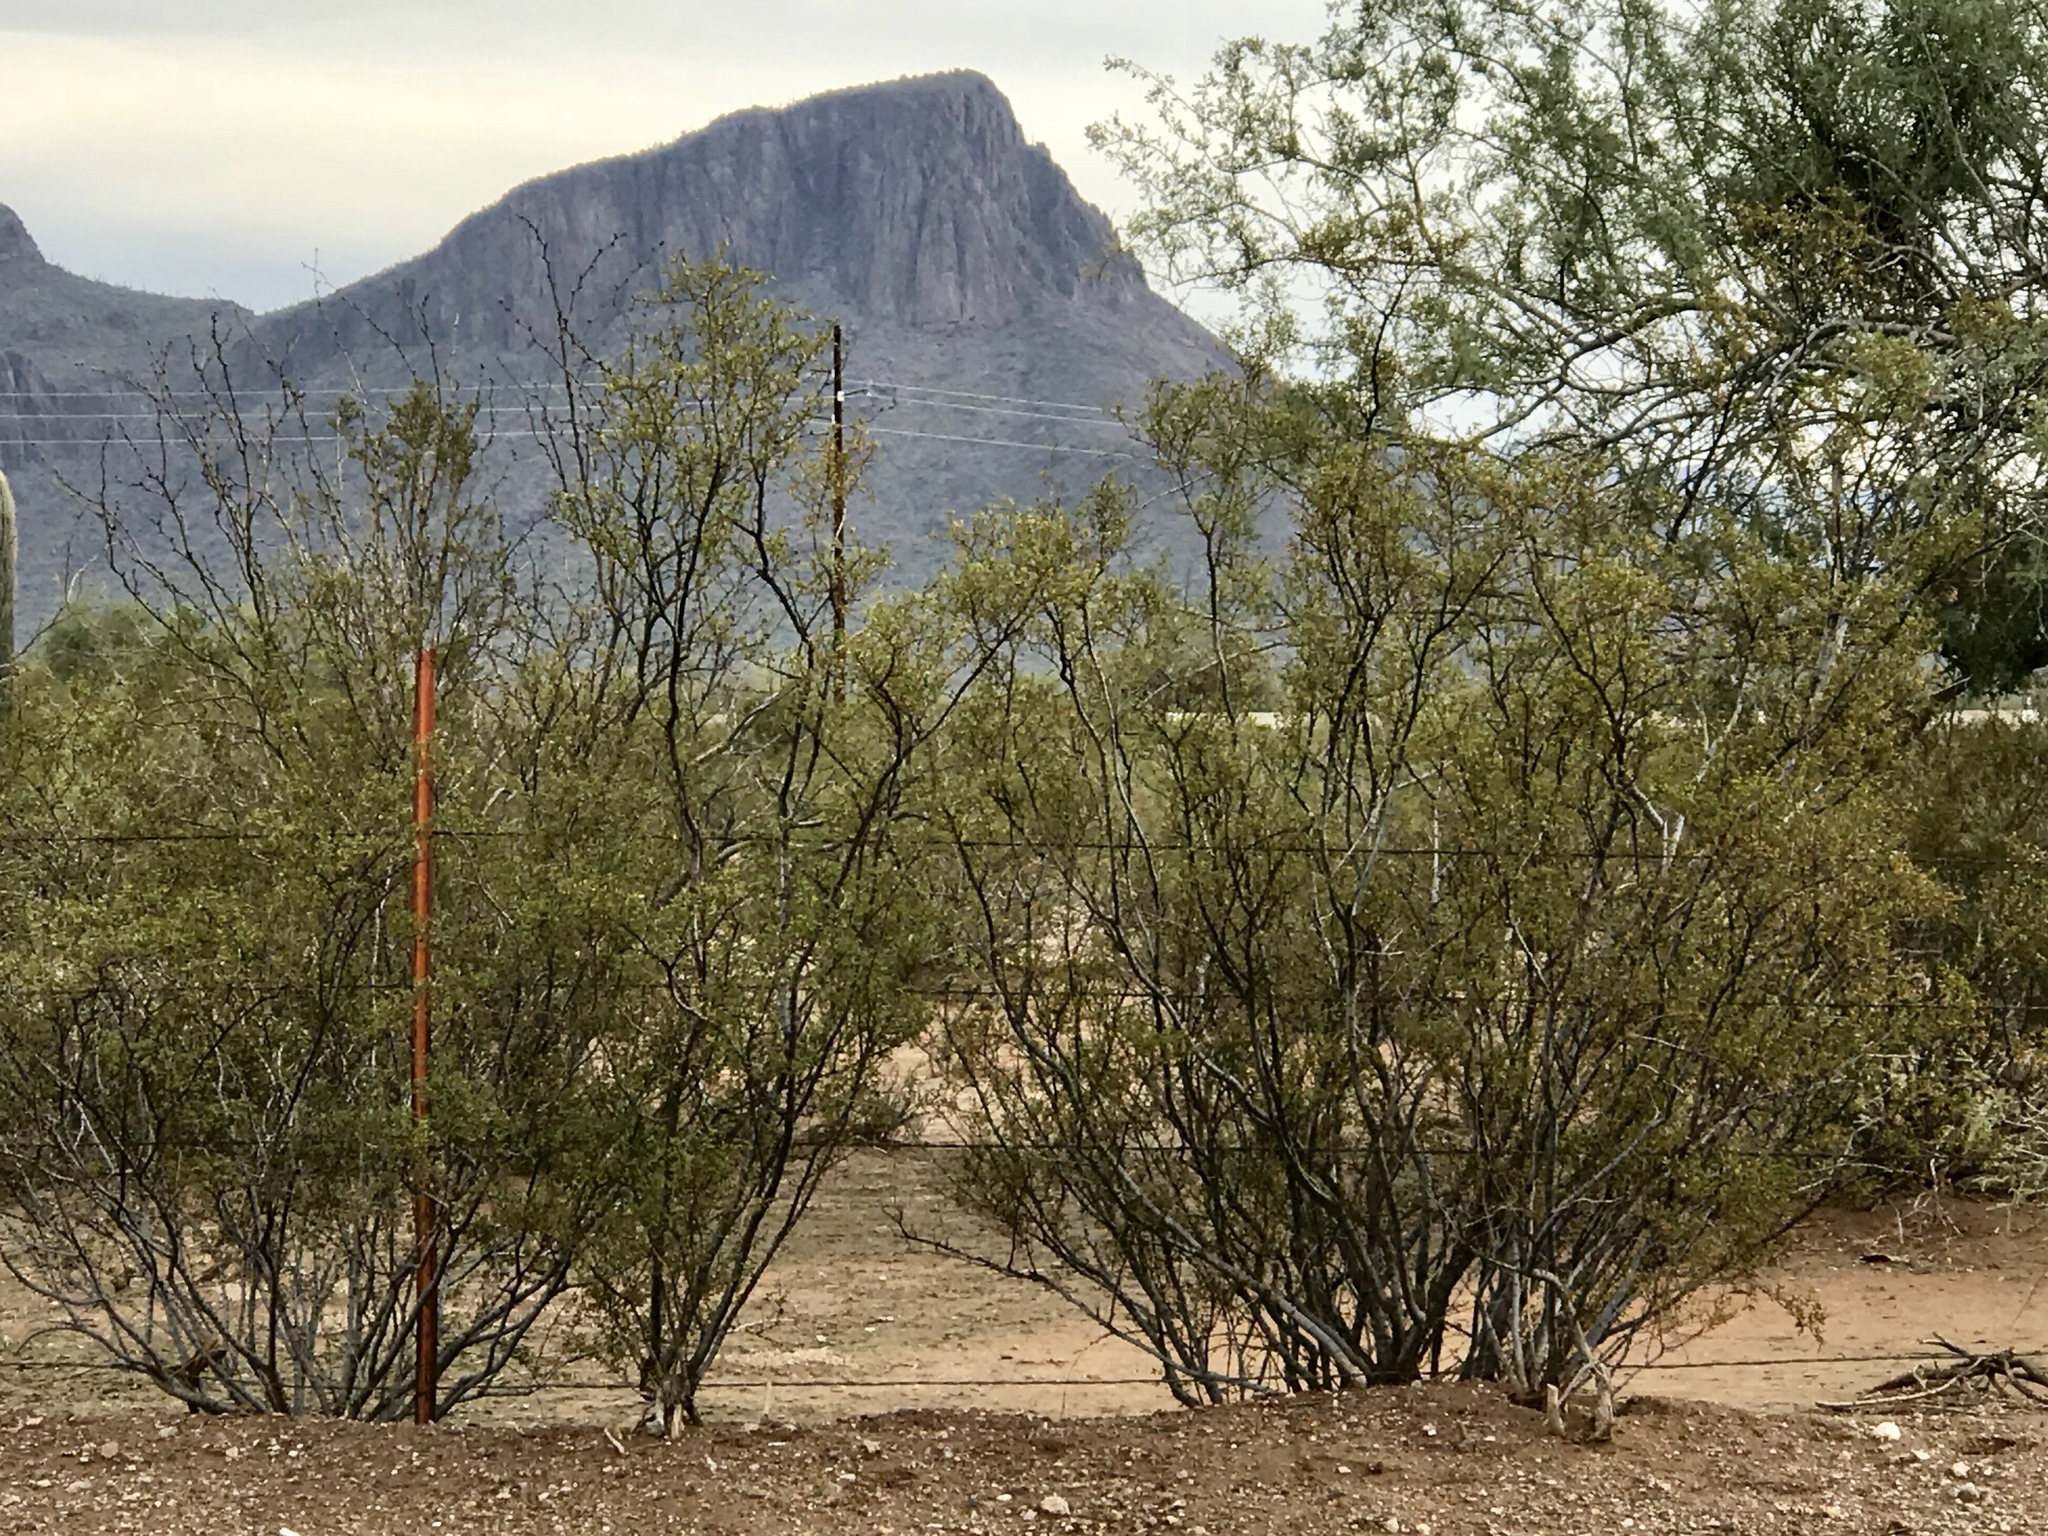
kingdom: Plantae
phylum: Tracheophyta
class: Magnoliopsida
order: Zygophyllales
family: Zygophyllaceae
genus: Larrea
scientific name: Larrea tridentata
